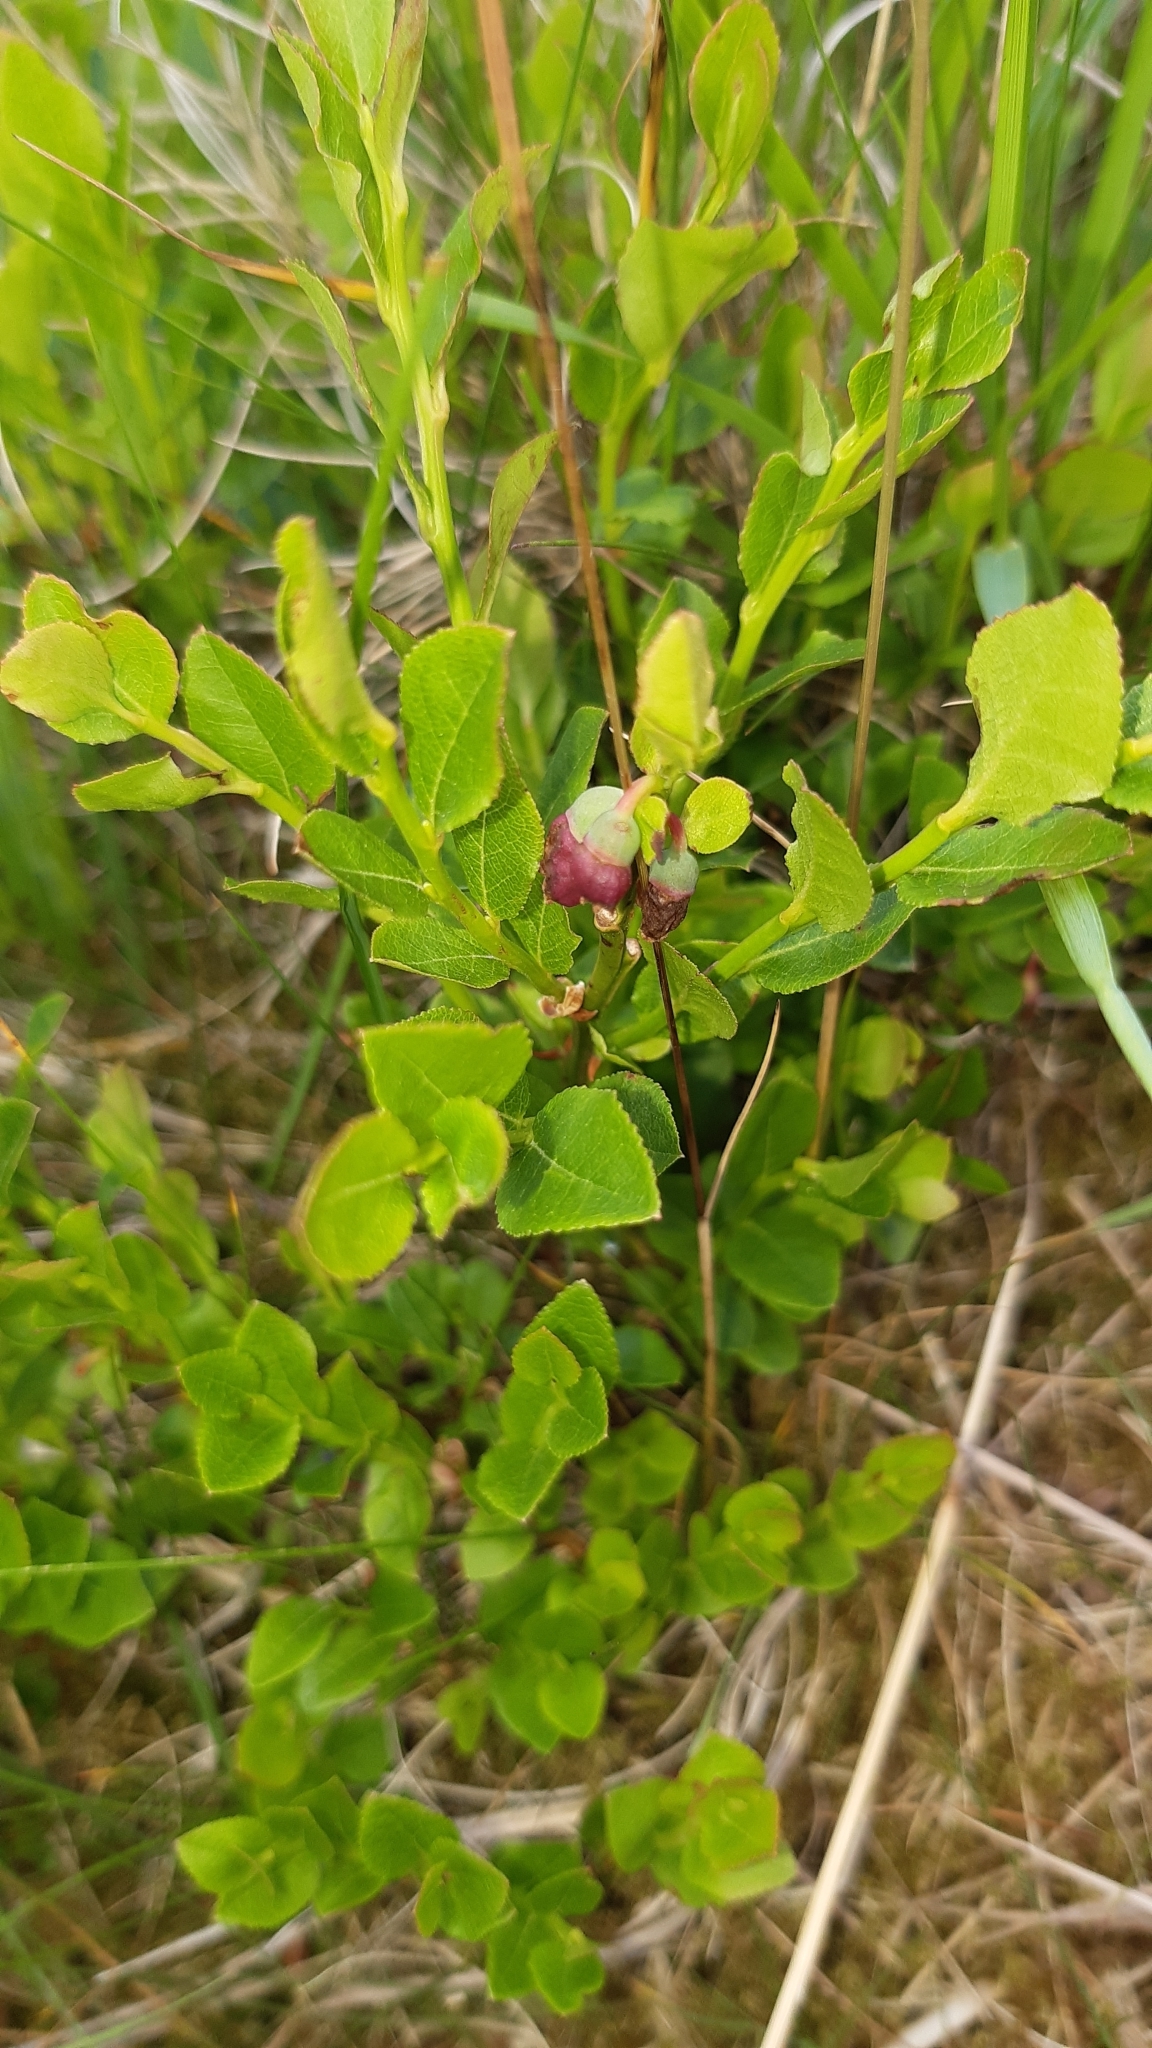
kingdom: Plantae
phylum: Tracheophyta
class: Magnoliopsida
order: Ericales
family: Ericaceae
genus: Vaccinium
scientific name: Vaccinium myrtillus
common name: Bilberry
